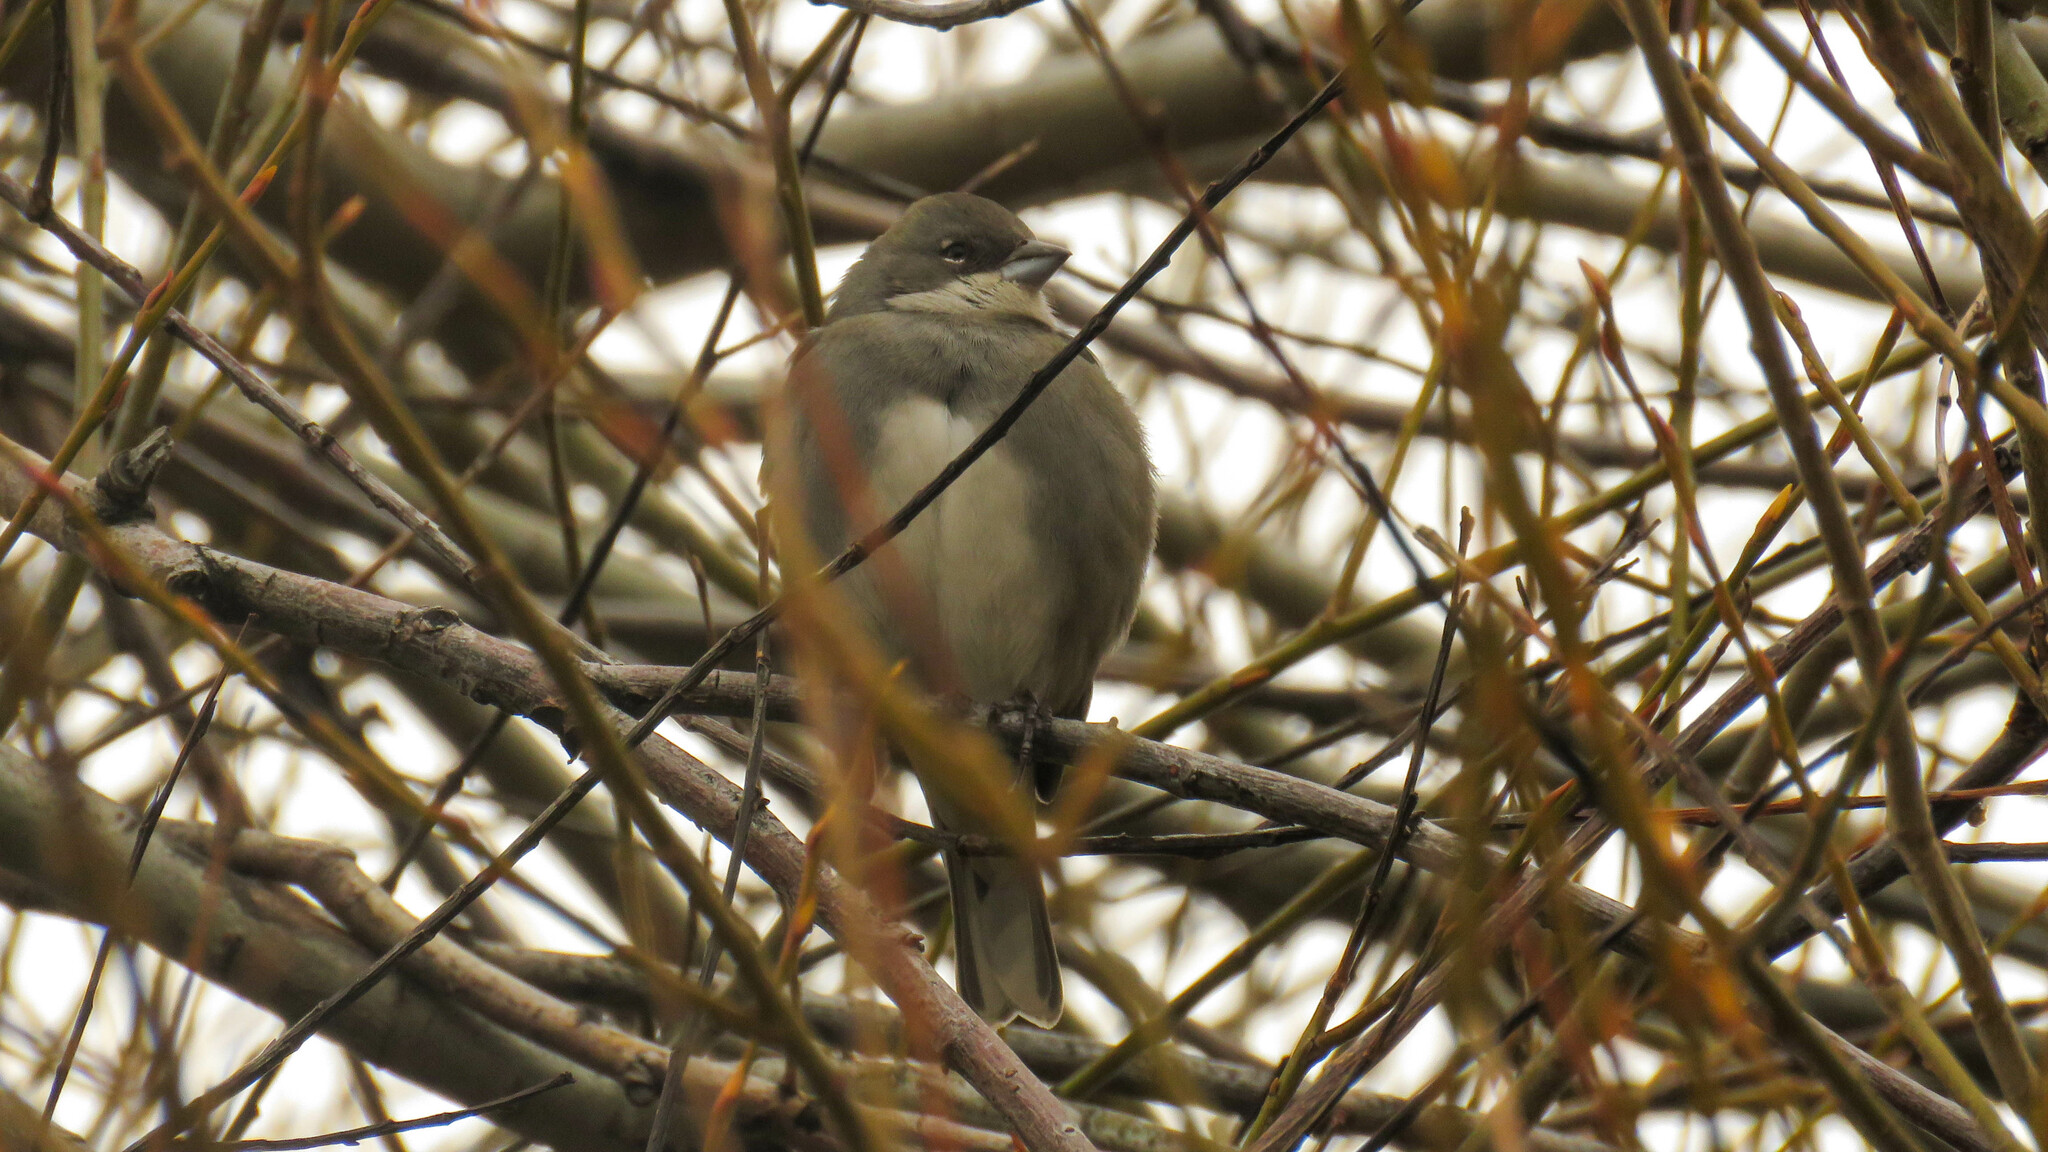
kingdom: Animalia
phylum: Chordata
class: Aves
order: Passeriformes
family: Thraupidae
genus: Diuca
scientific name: Diuca diuca
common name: Common diuca finch
